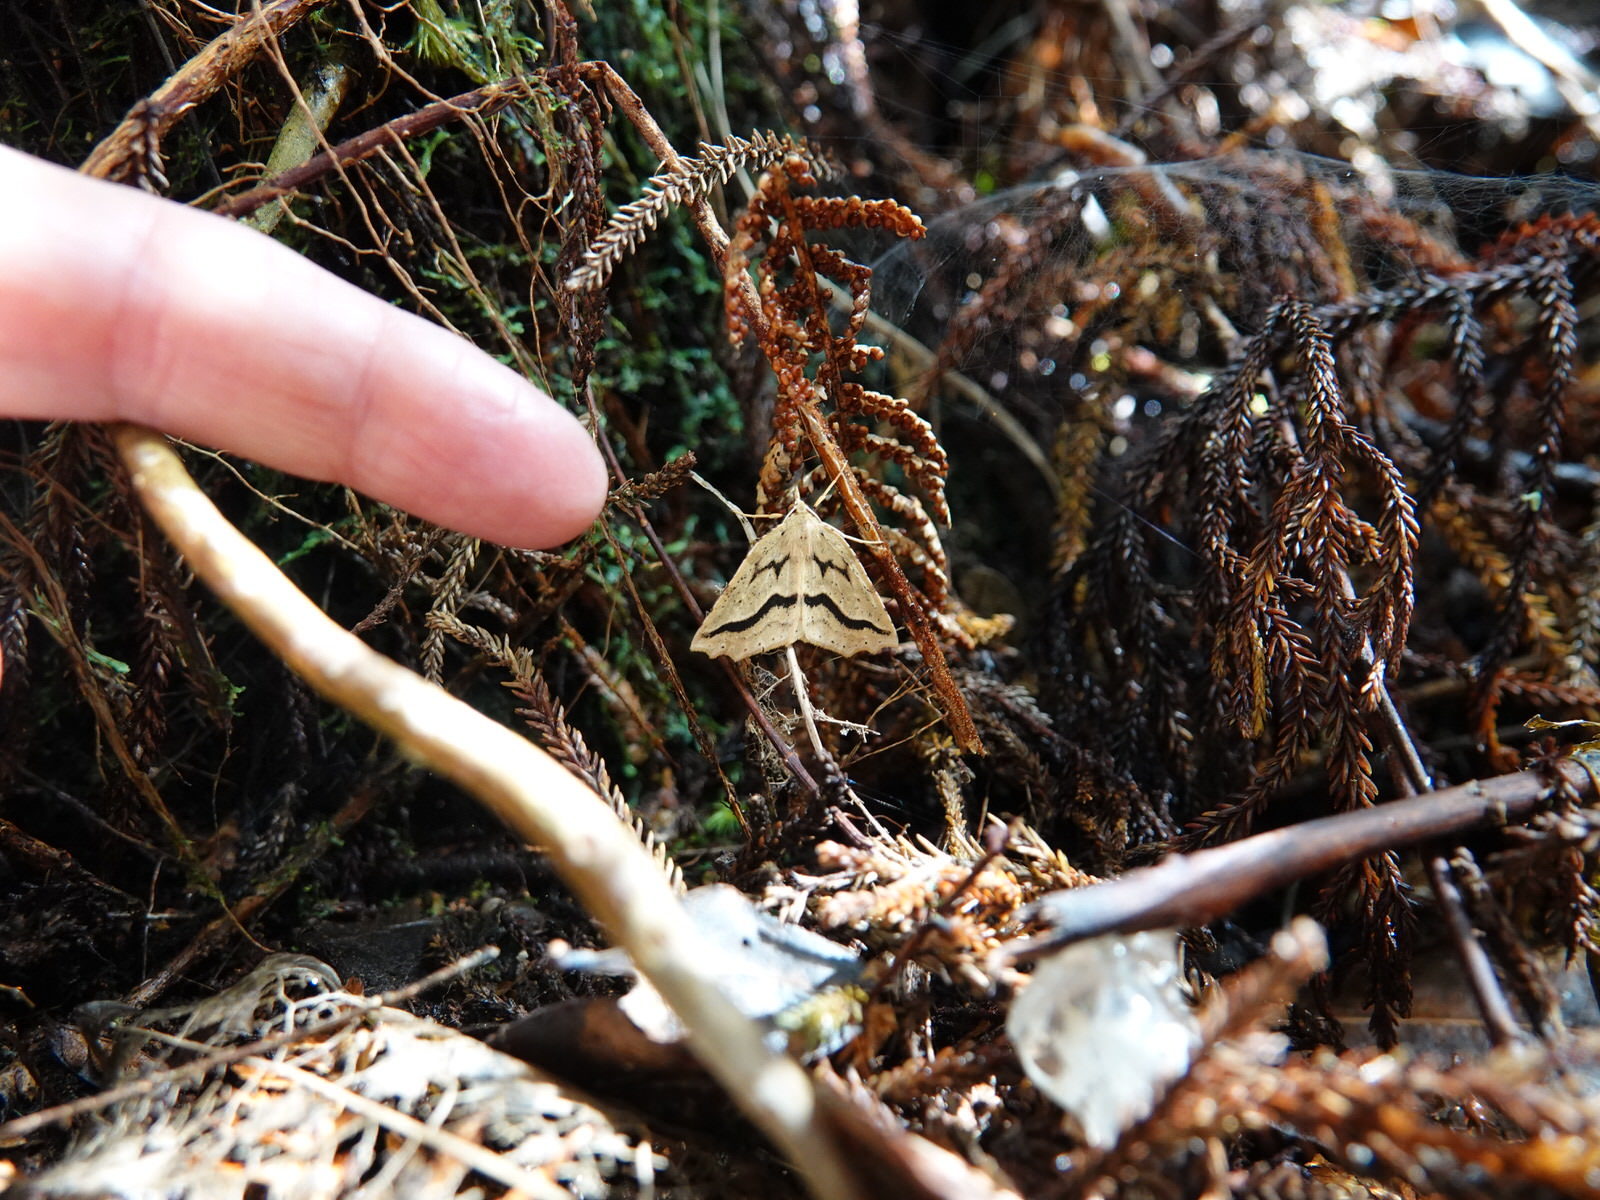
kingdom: Animalia
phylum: Arthropoda
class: Insecta
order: Lepidoptera
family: Geometridae
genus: Ischalis
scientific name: Ischalis variabilis
